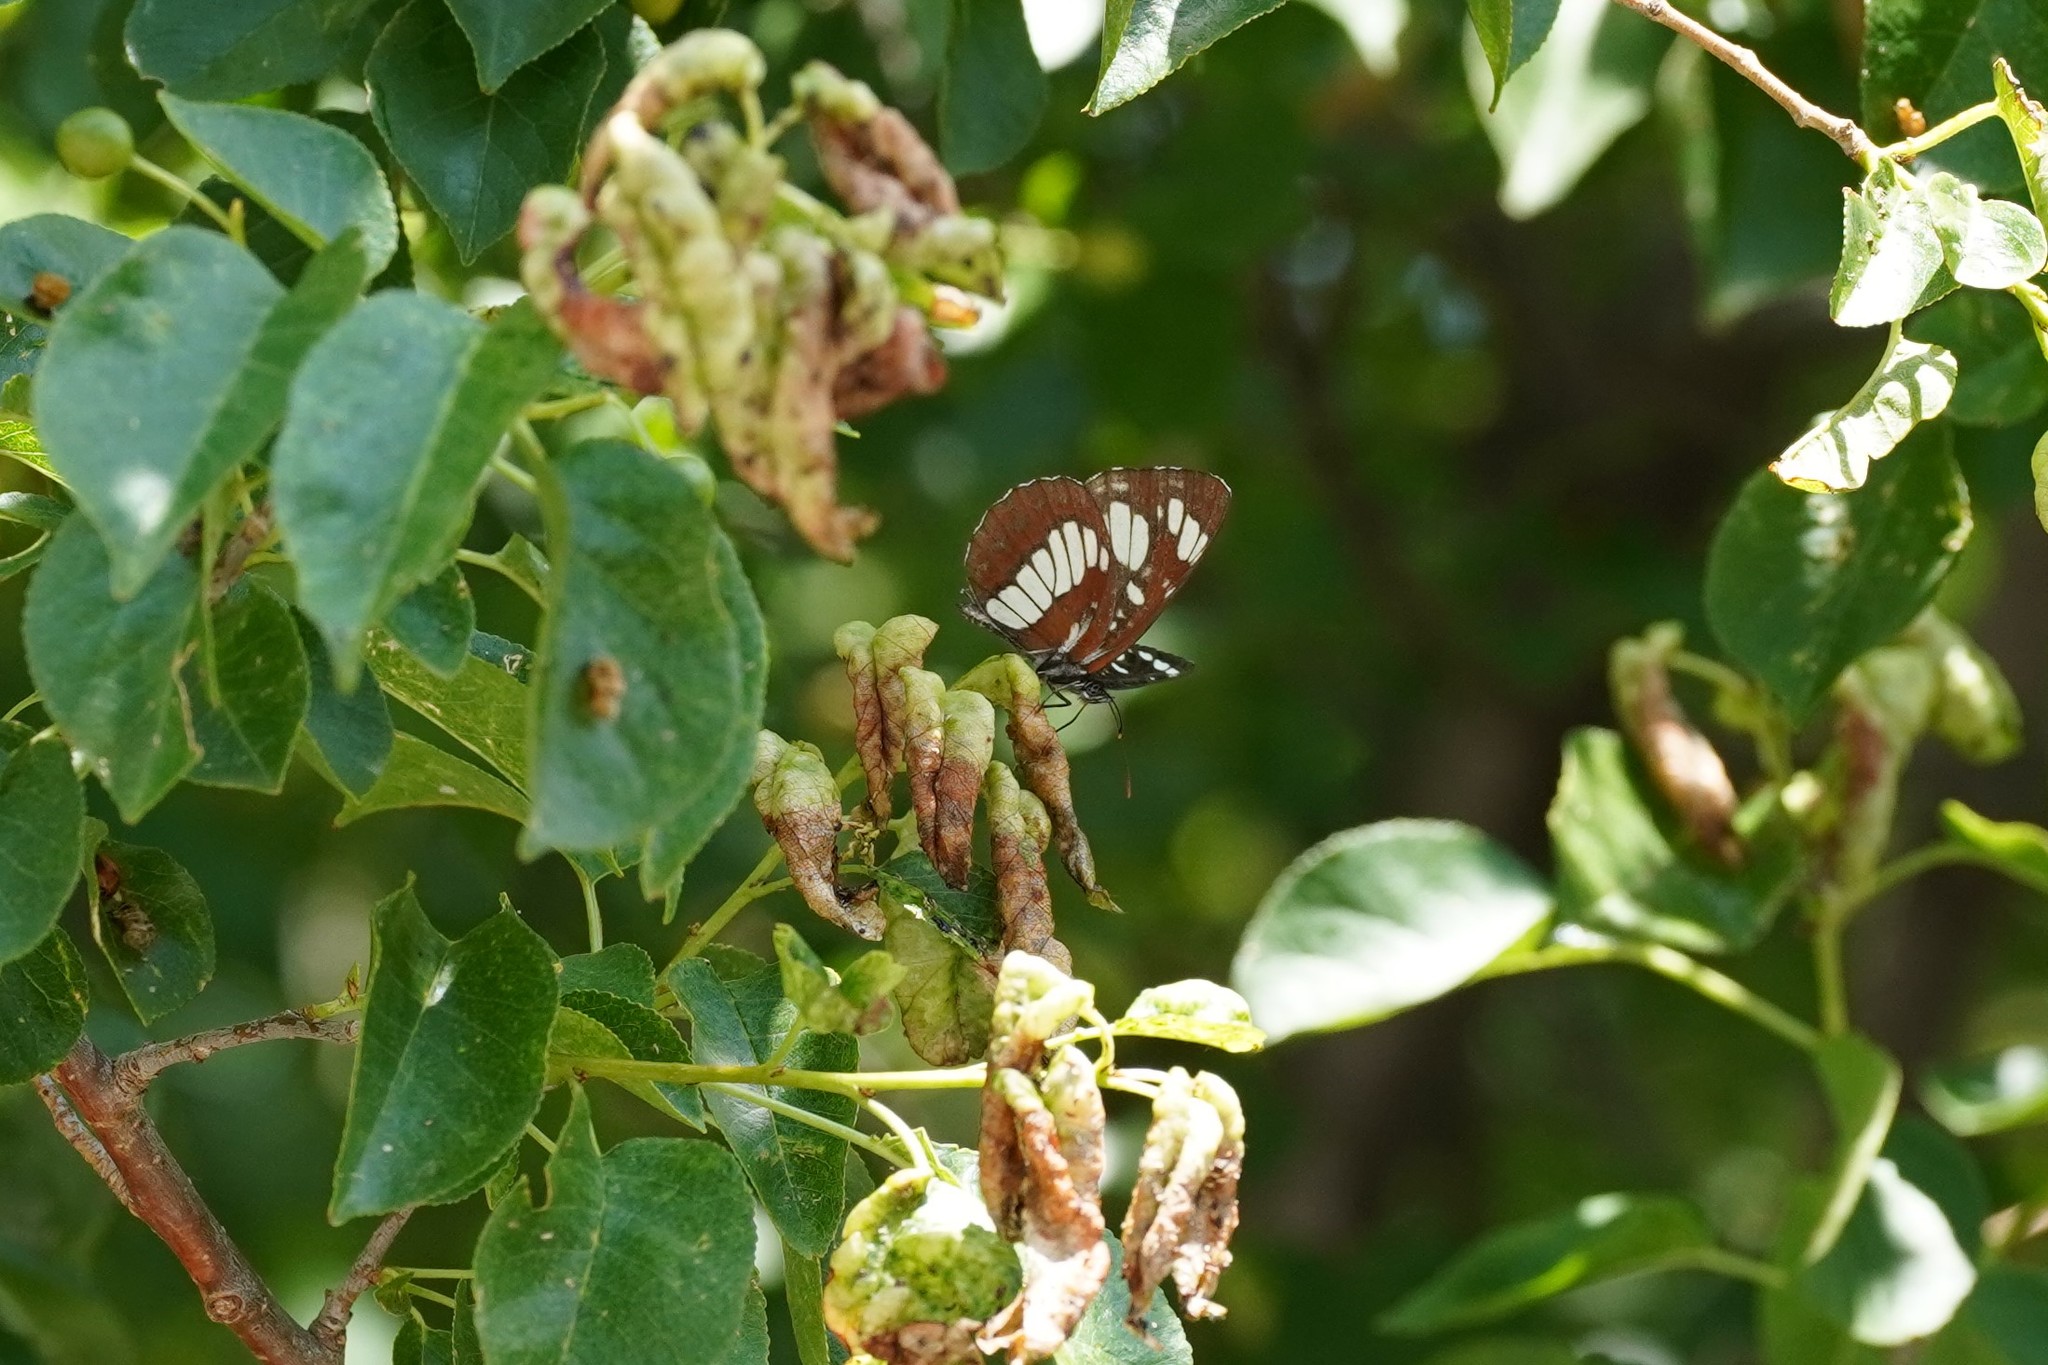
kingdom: Animalia
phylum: Arthropoda
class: Insecta
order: Lepidoptera
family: Nymphalidae
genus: Neptis
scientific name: Neptis rivularis
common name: Hungarian glider
